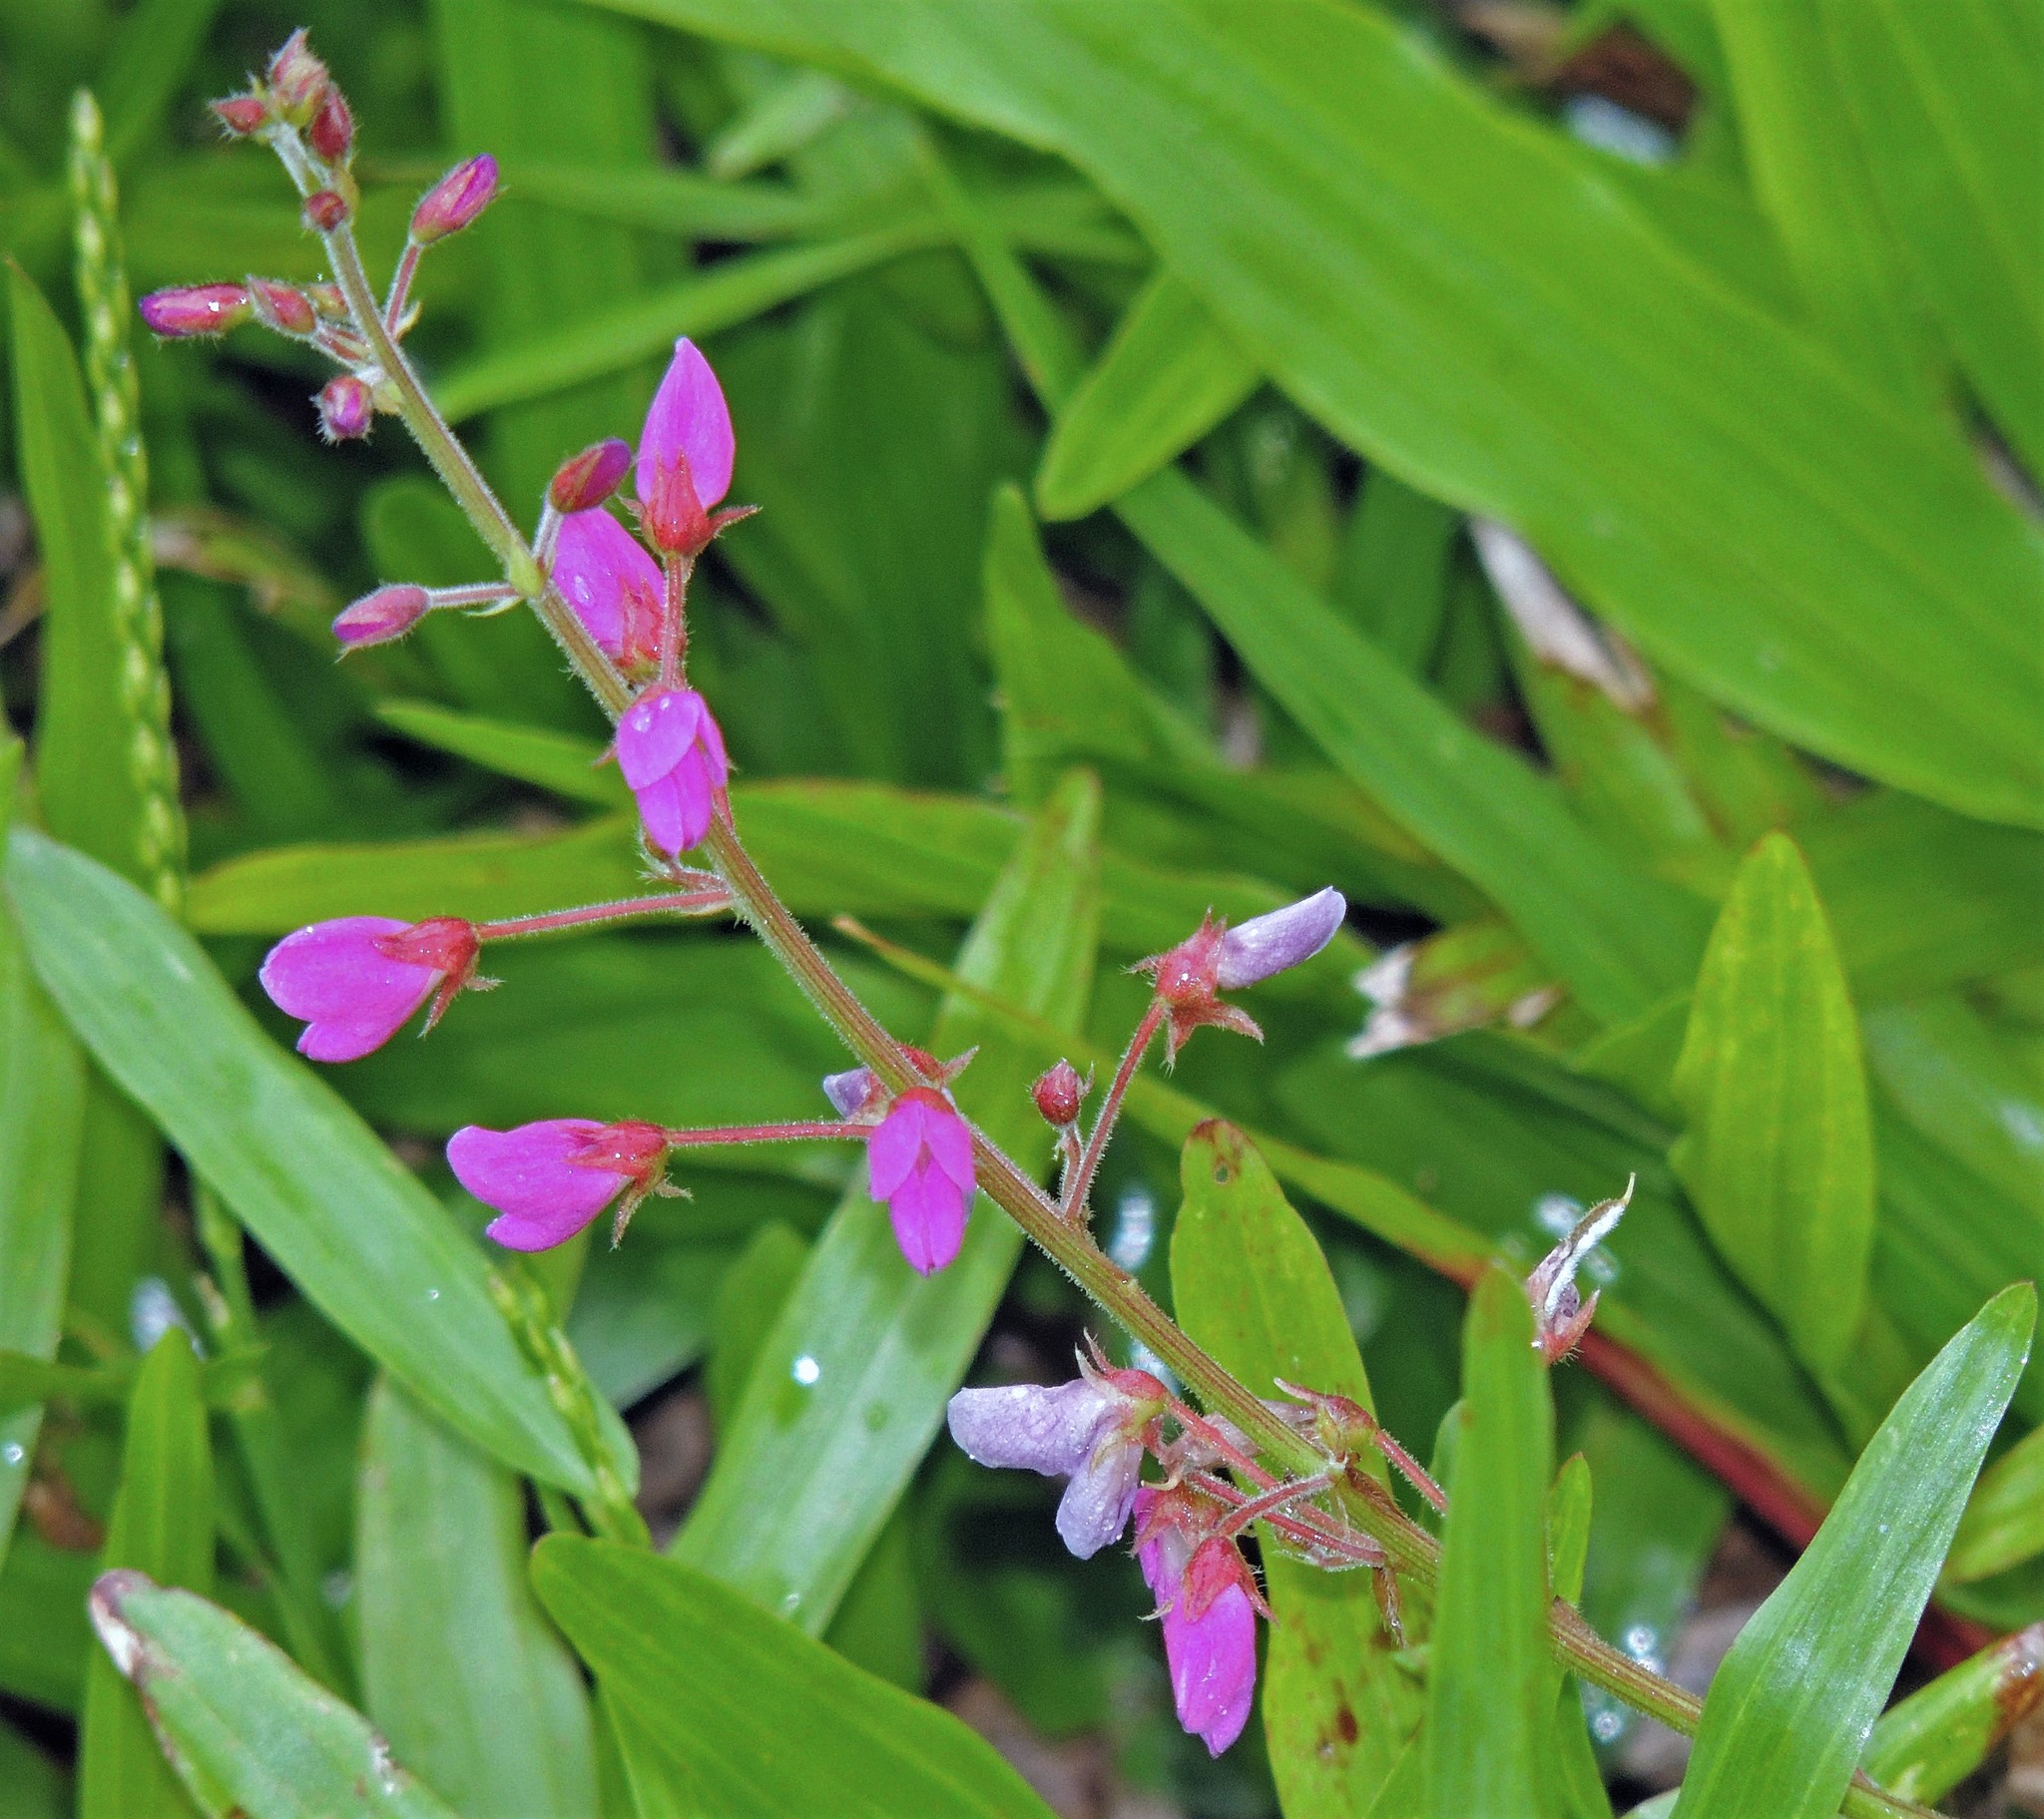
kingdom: Plantae
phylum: Tracheophyta
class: Magnoliopsida
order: Fabales
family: Fabaceae
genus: Desmodium
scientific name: Desmodium uncinatum
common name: Silverleaf desmodium
